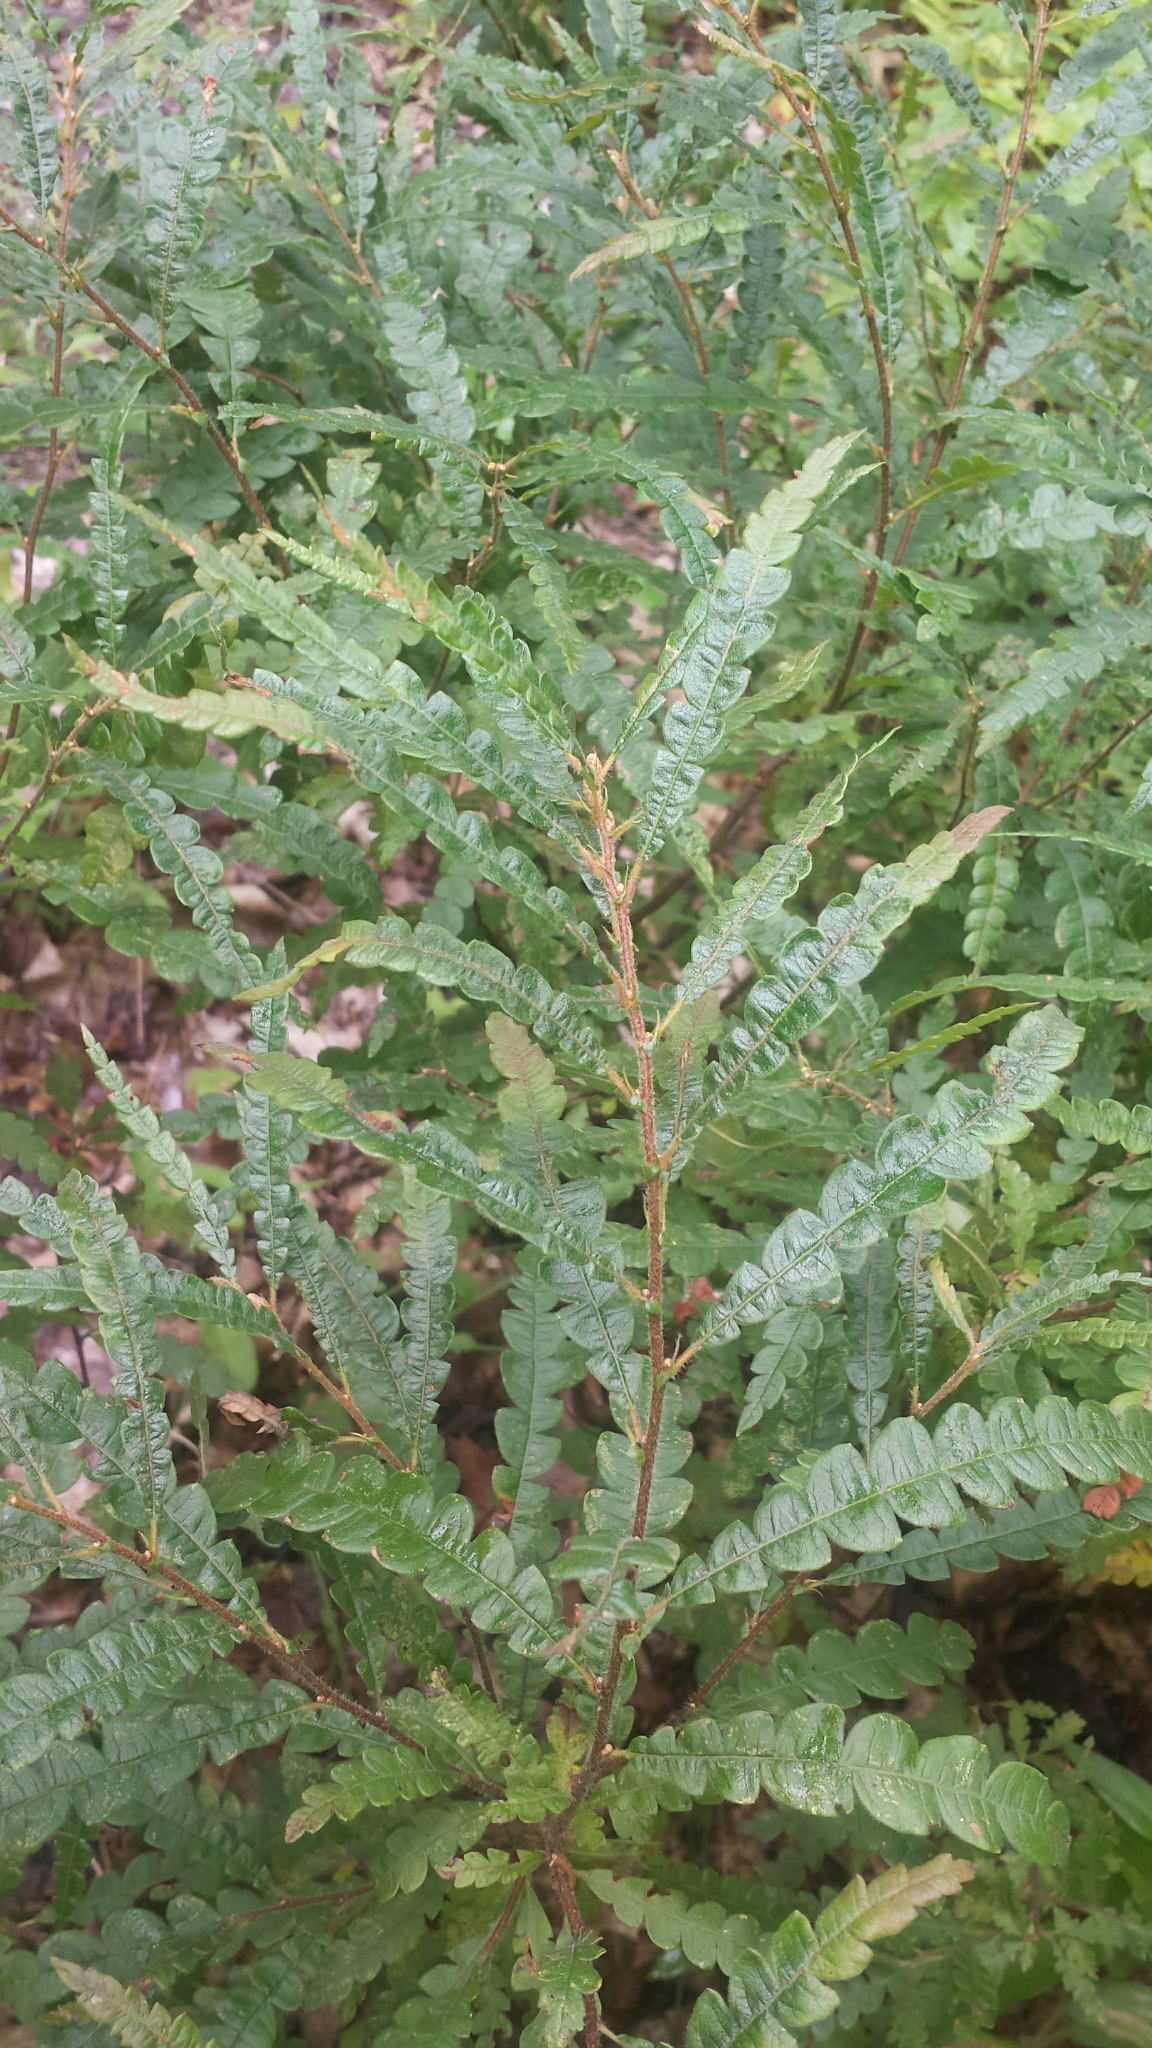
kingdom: Plantae
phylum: Tracheophyta
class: Magnoliopsida
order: Fagales
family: Myricaceae
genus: Comptonia
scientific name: Comptonia peregrina
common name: Sweet-fern
